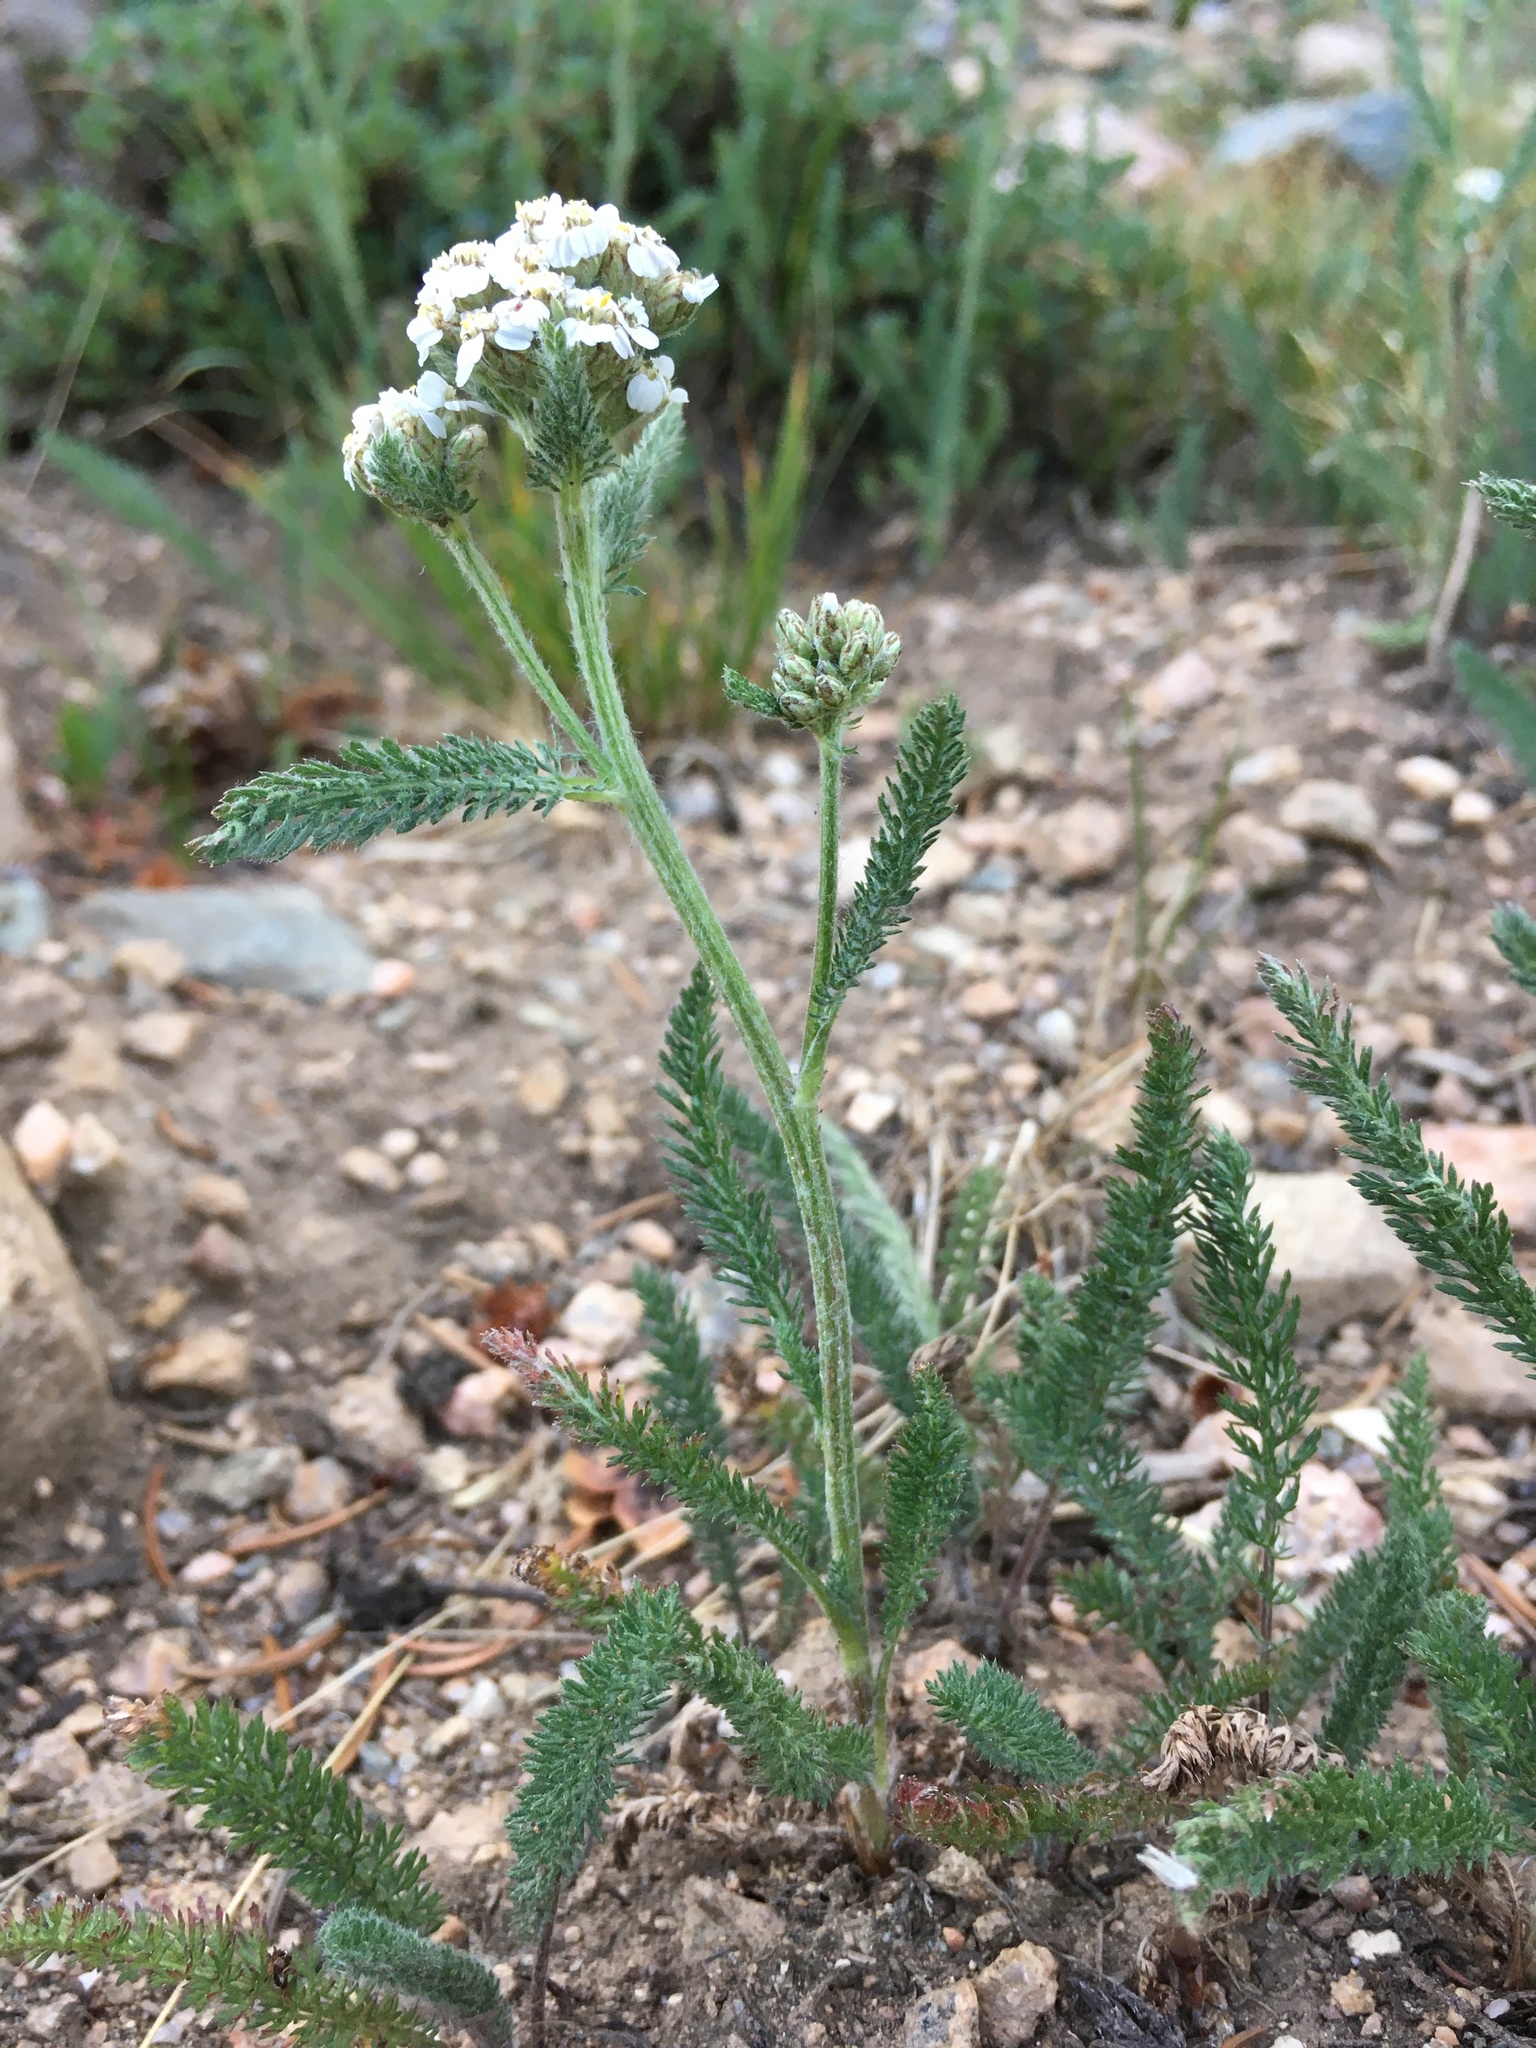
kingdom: Plantae
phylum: Tracheophyta
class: Magnoliopsida
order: Asterales
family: Asteraceae
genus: Achillea
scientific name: Achillea millefolium
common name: Yarrow
